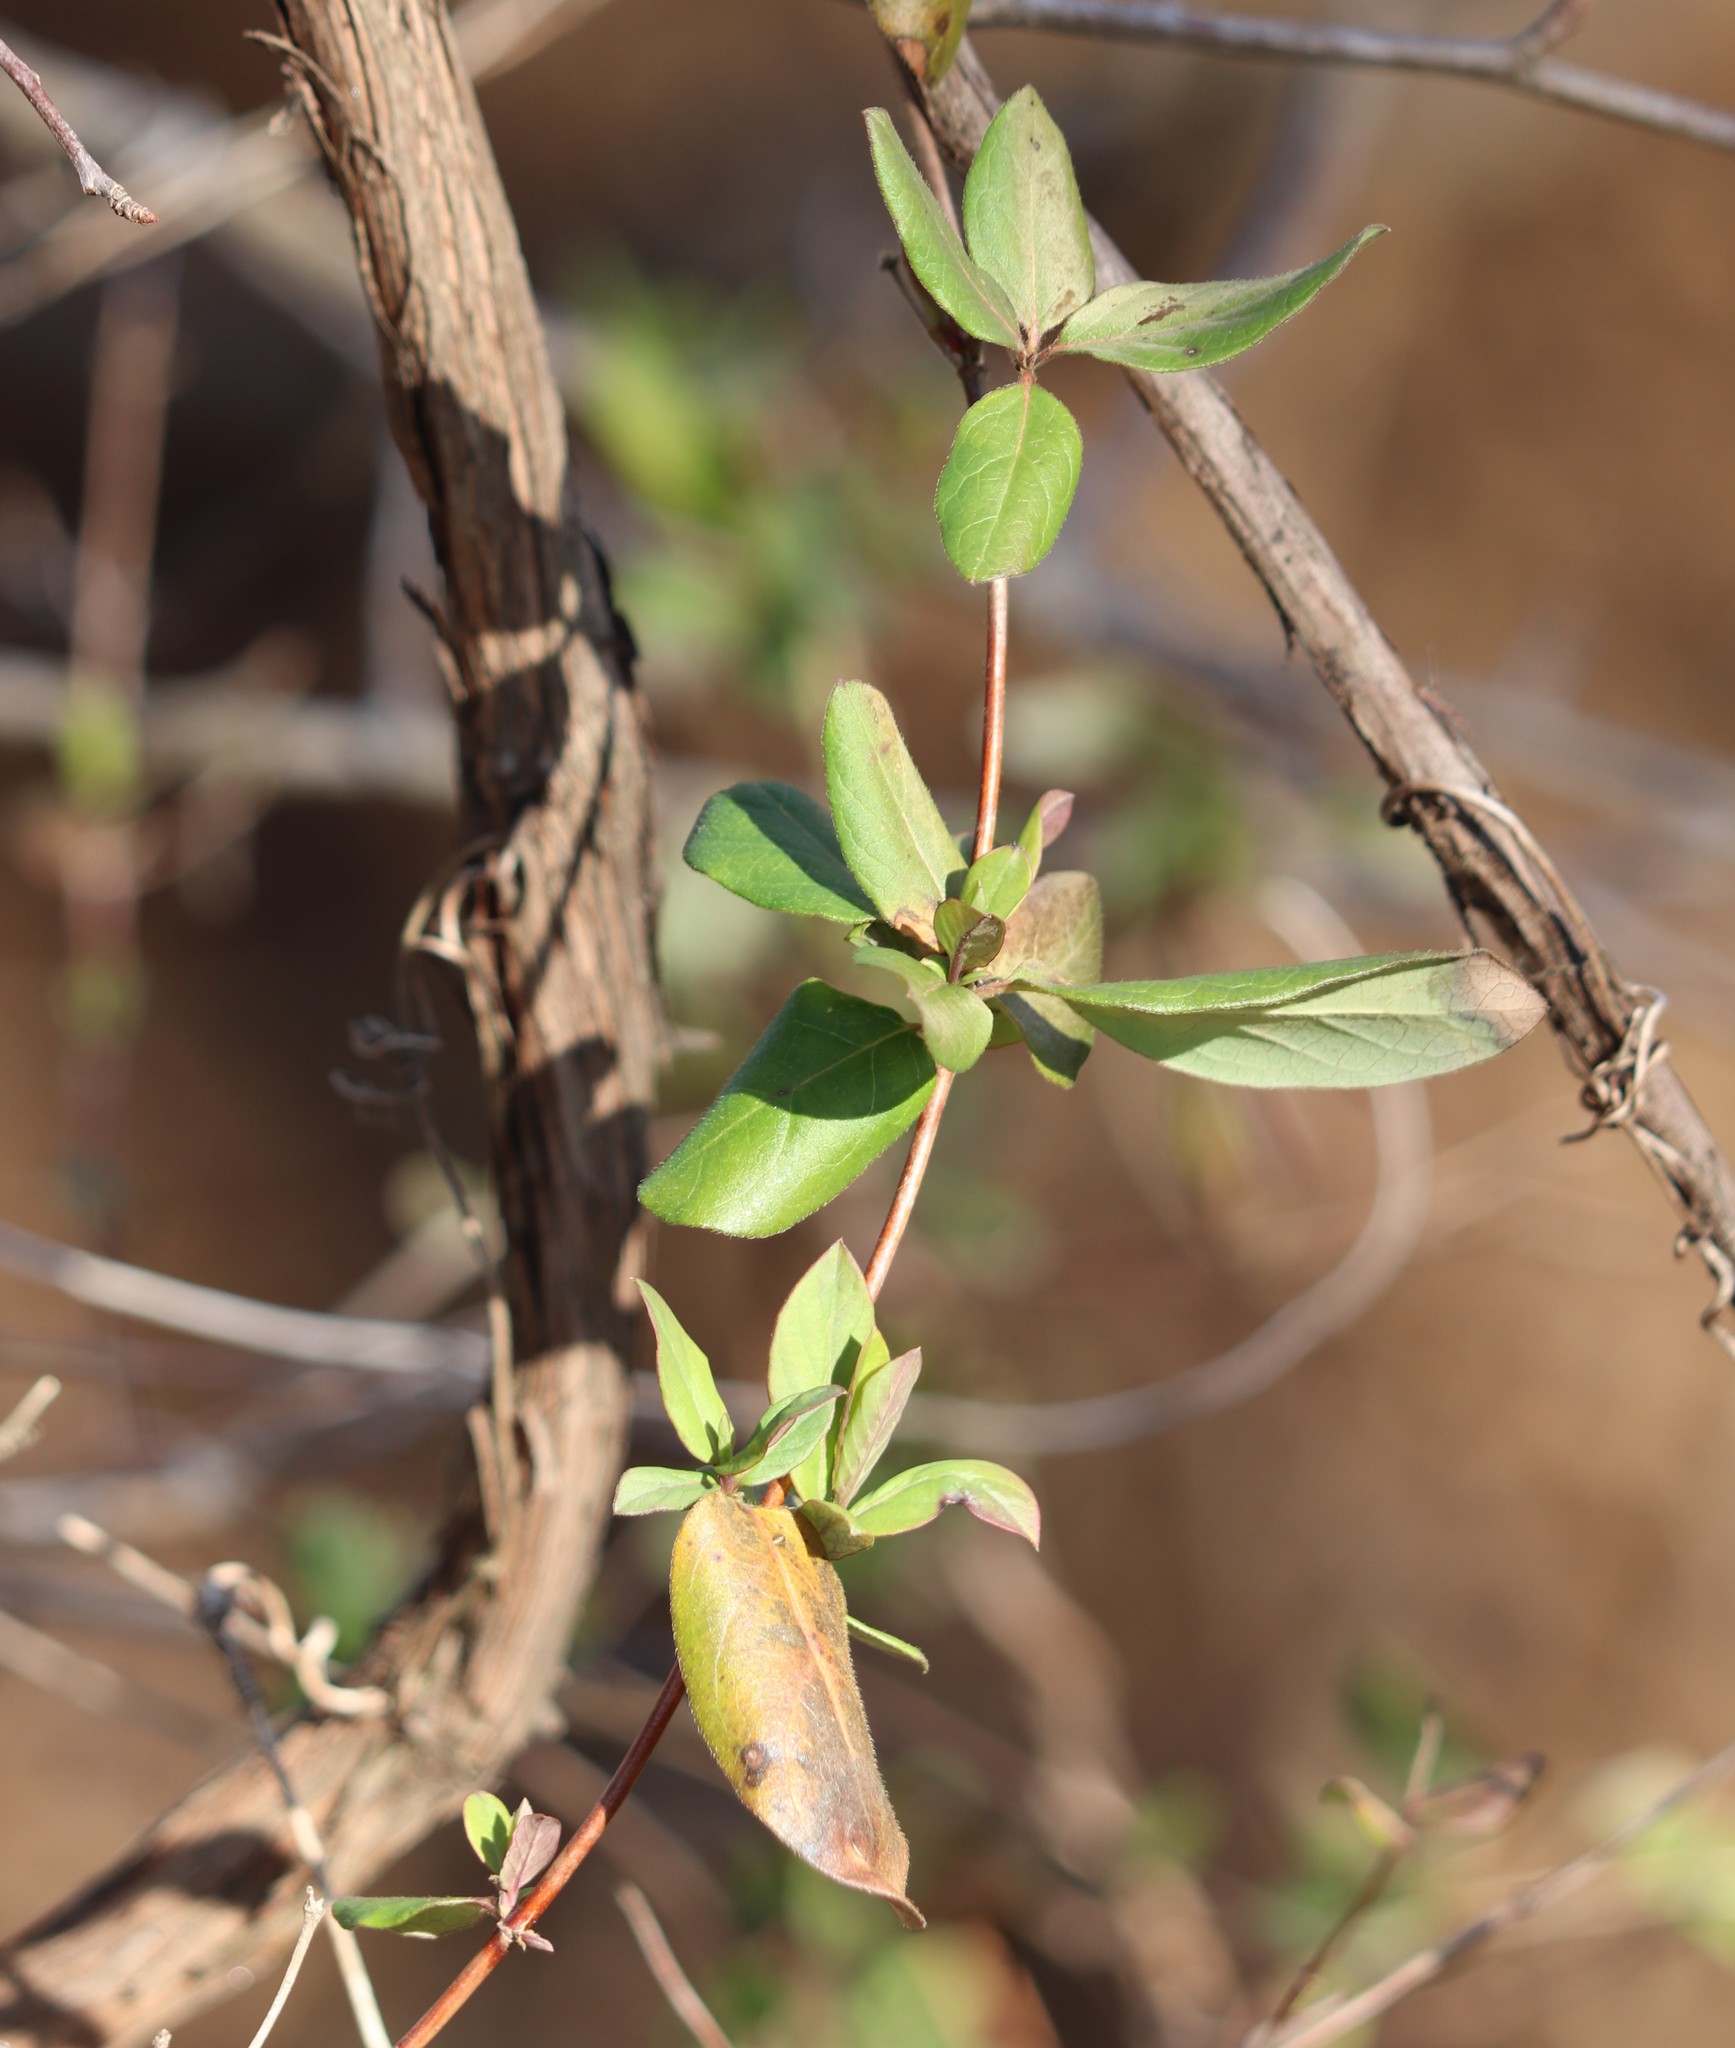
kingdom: Plantae
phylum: Tracheophyta
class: Magnoliopsida
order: Dipsacales
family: Caprifoliaceae
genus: Lonicera
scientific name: Lonicera japonica
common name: Japanese honeysuckle
